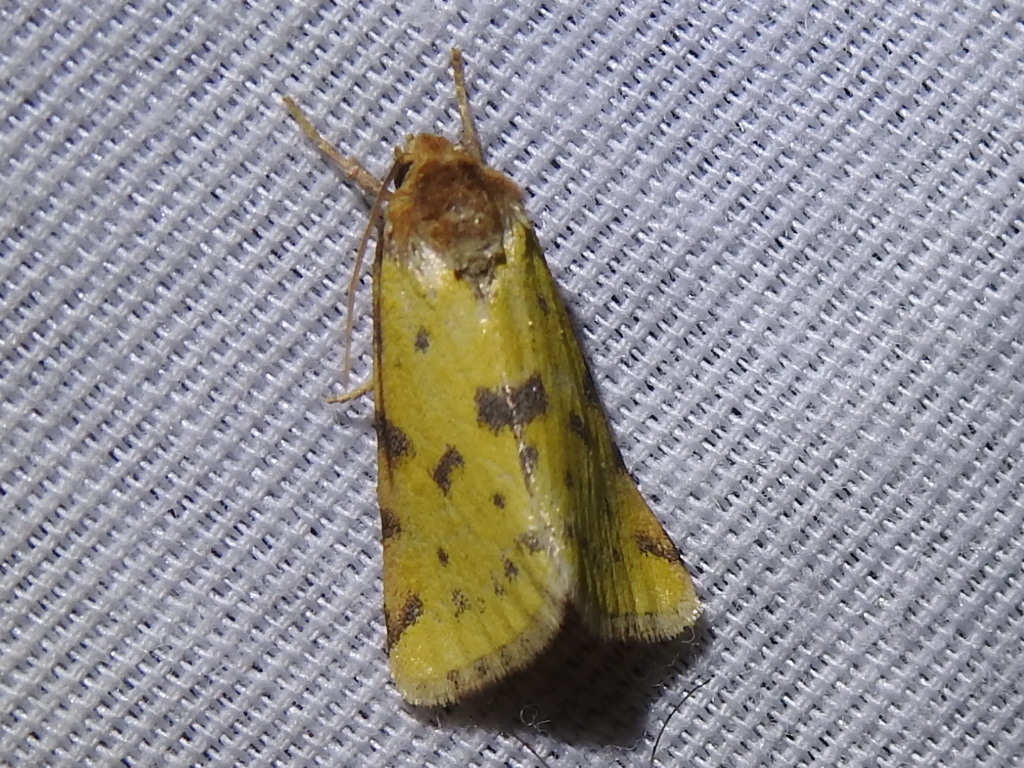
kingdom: Animalia
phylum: Arthropoda
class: Insecta
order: Lepidoptera
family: Noctuidae
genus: Azenia
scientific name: Azenia obtusa
